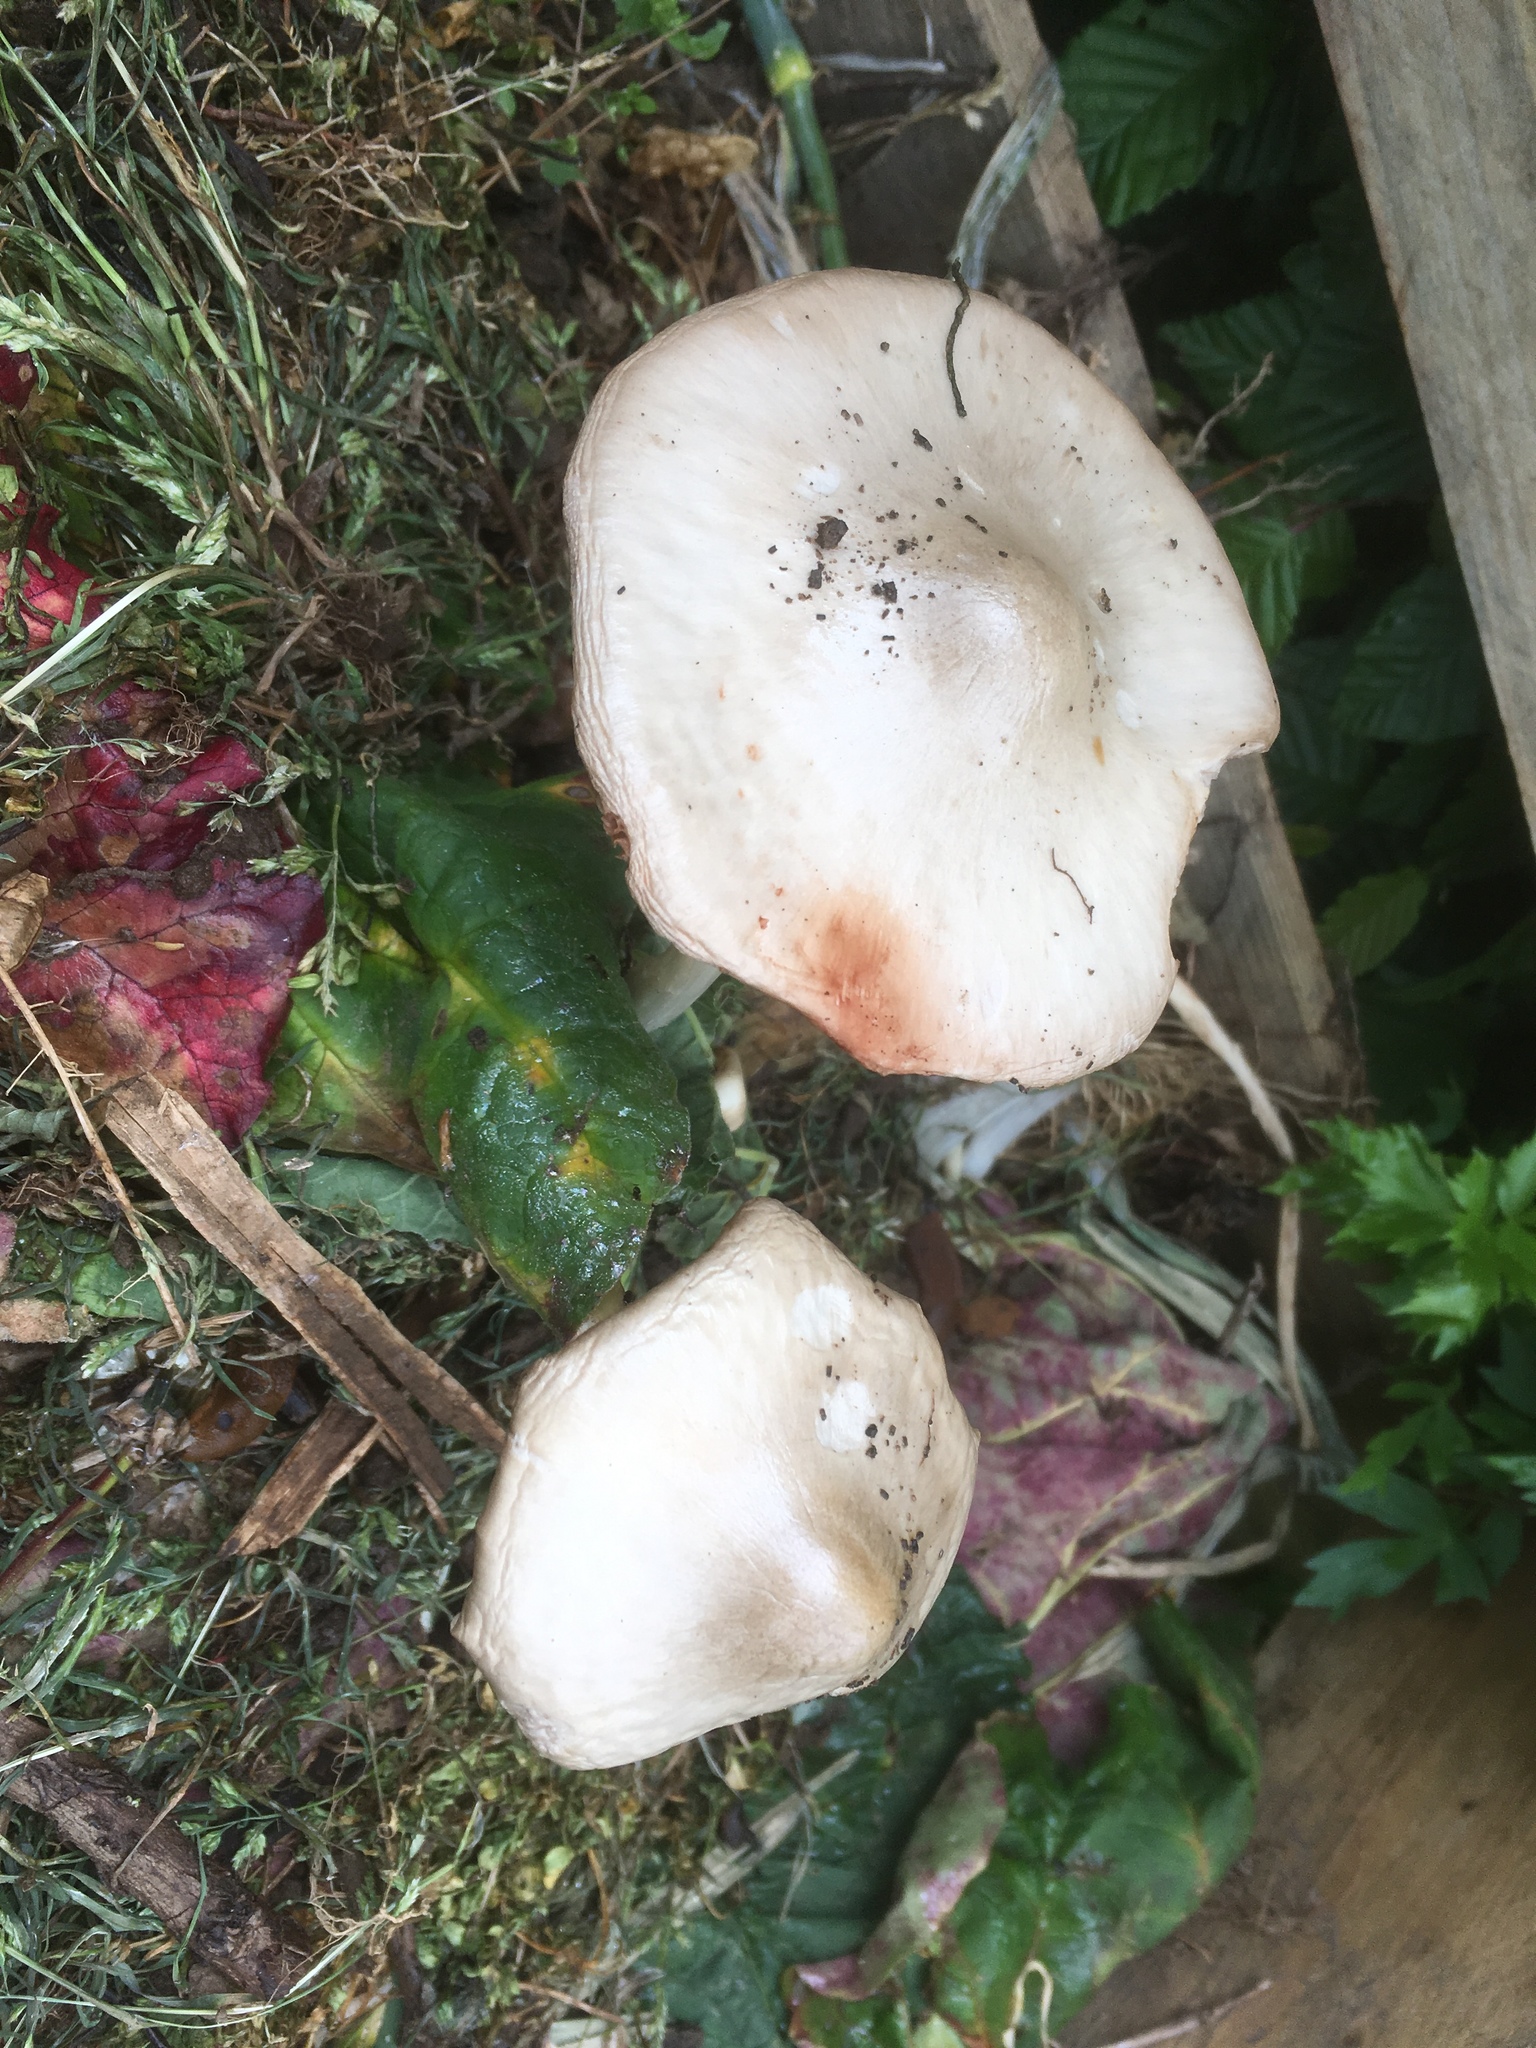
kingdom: Fungi
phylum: Basidiomycota
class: Agaricomycetes
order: Agaricales
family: Pluteaceae
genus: Volvopluteus
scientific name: Volvopluteus gloiocephalus
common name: Stubble rosegill
